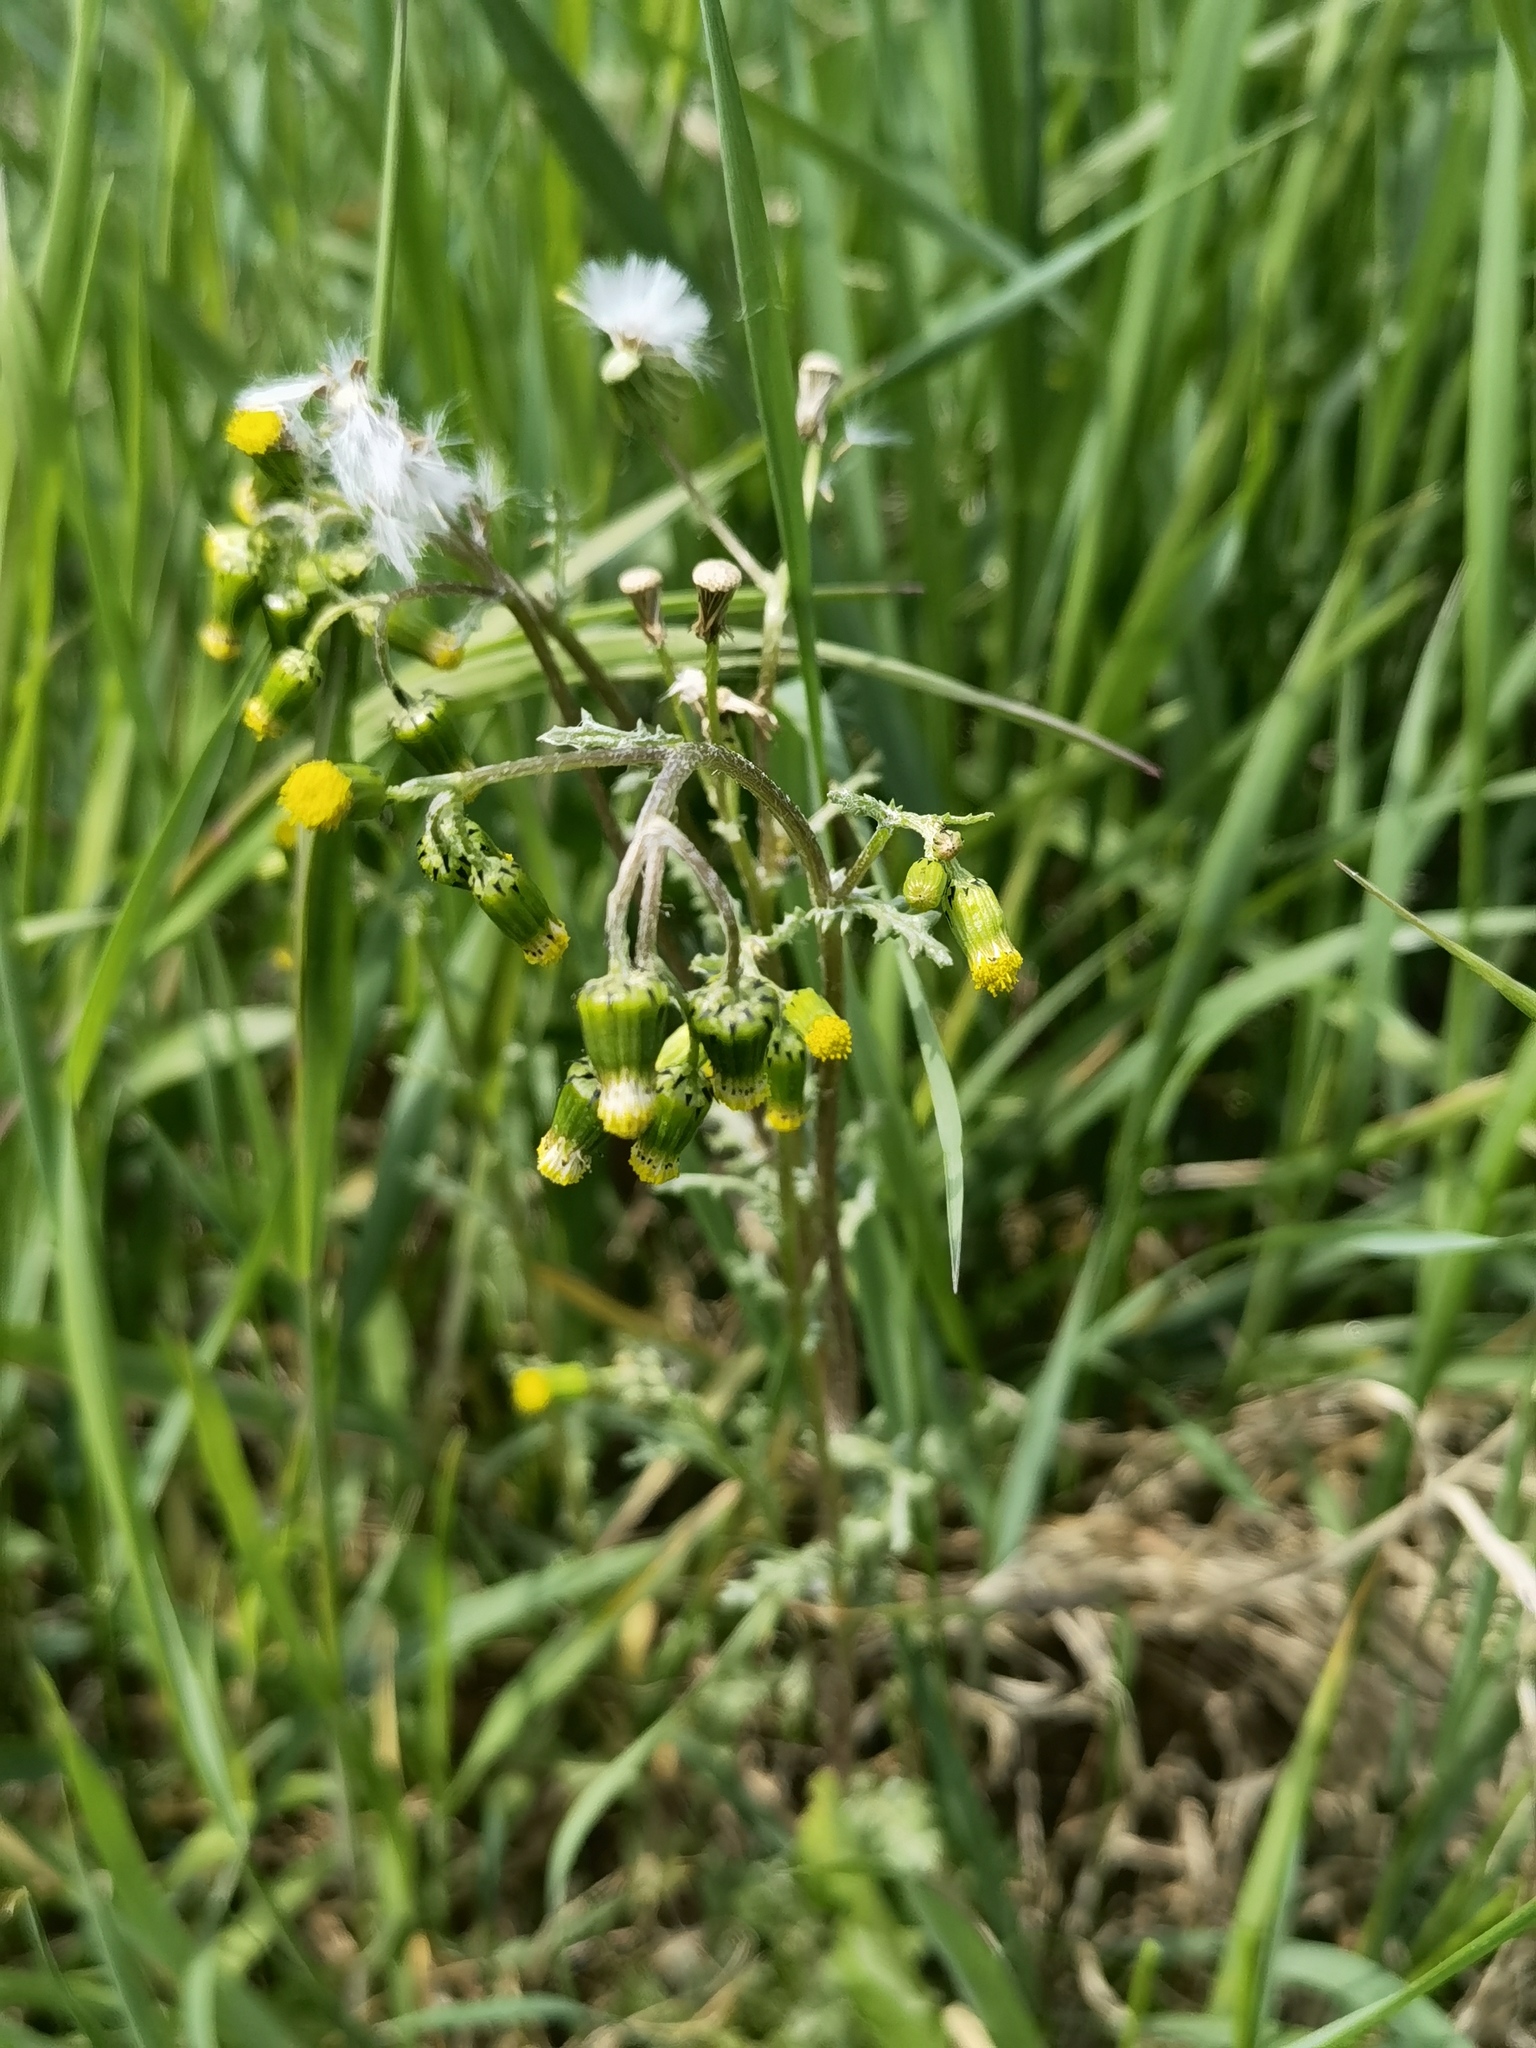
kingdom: Plantae
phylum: Tracheophyta
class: Magnoliopsida
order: Asterales
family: Asteraceae
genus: Senecio
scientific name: Senecio vulgaris
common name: Old-man-in-the-spring
